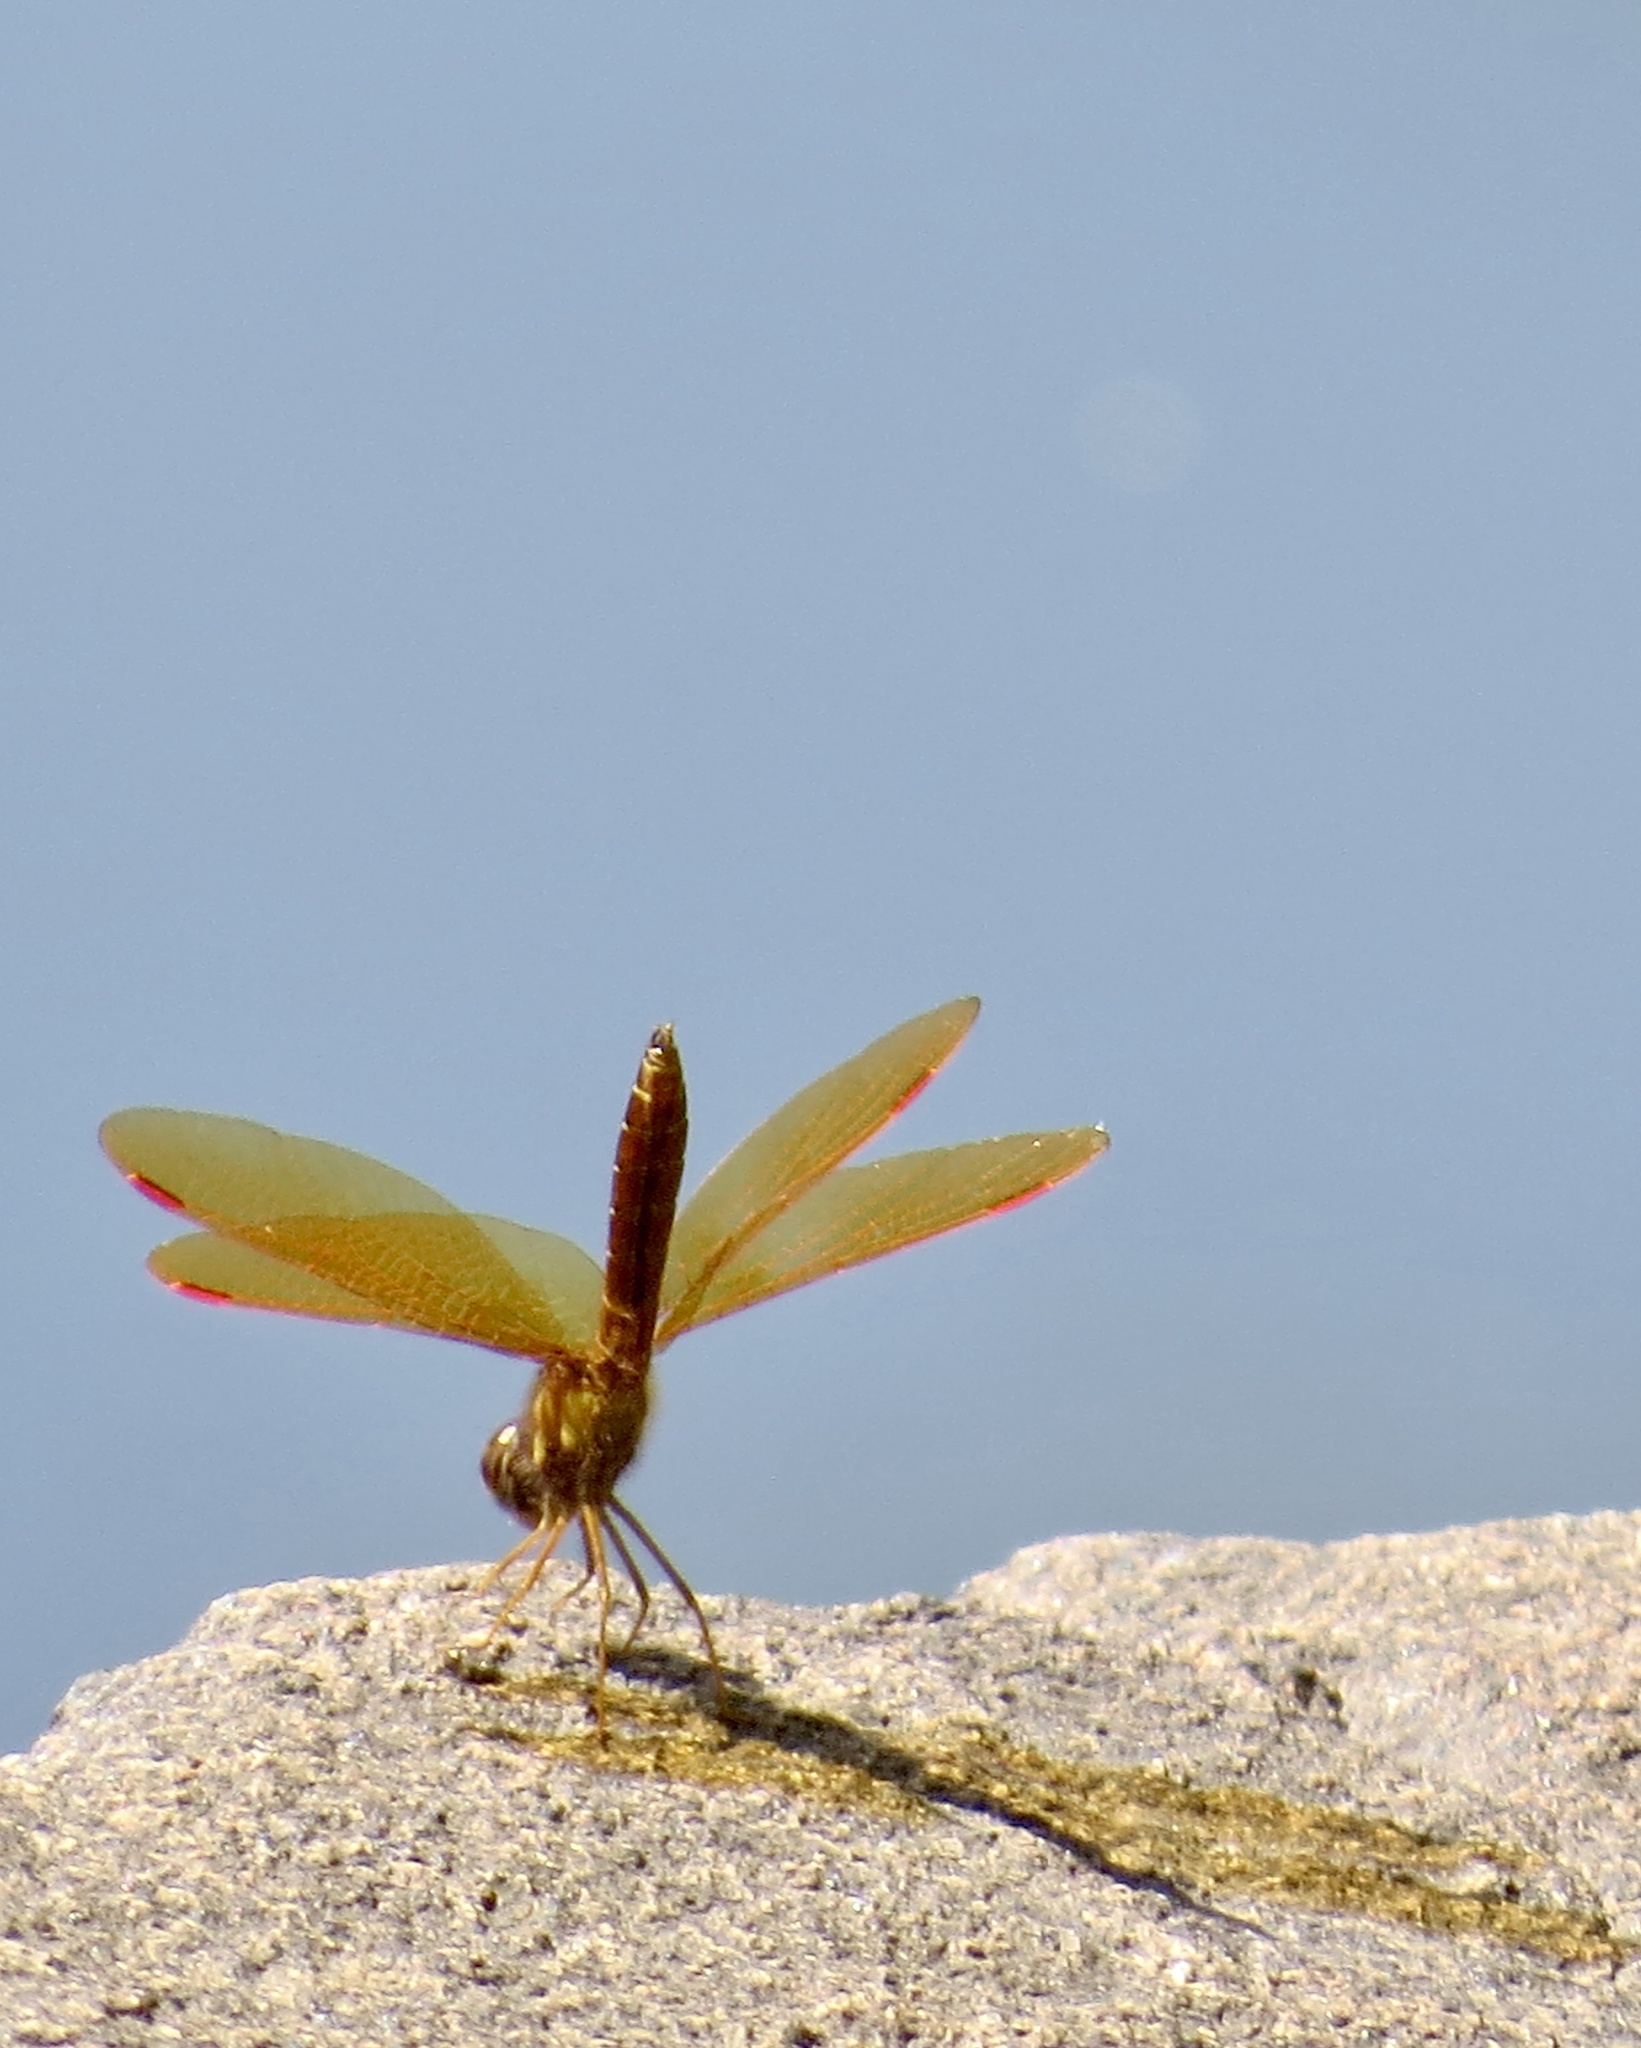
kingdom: Animalia
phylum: Arthropoda
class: Insecta
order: Odonata
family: Libellulidae
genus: Perithemis
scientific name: Perithemis tenera
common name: Eastern amberwing
